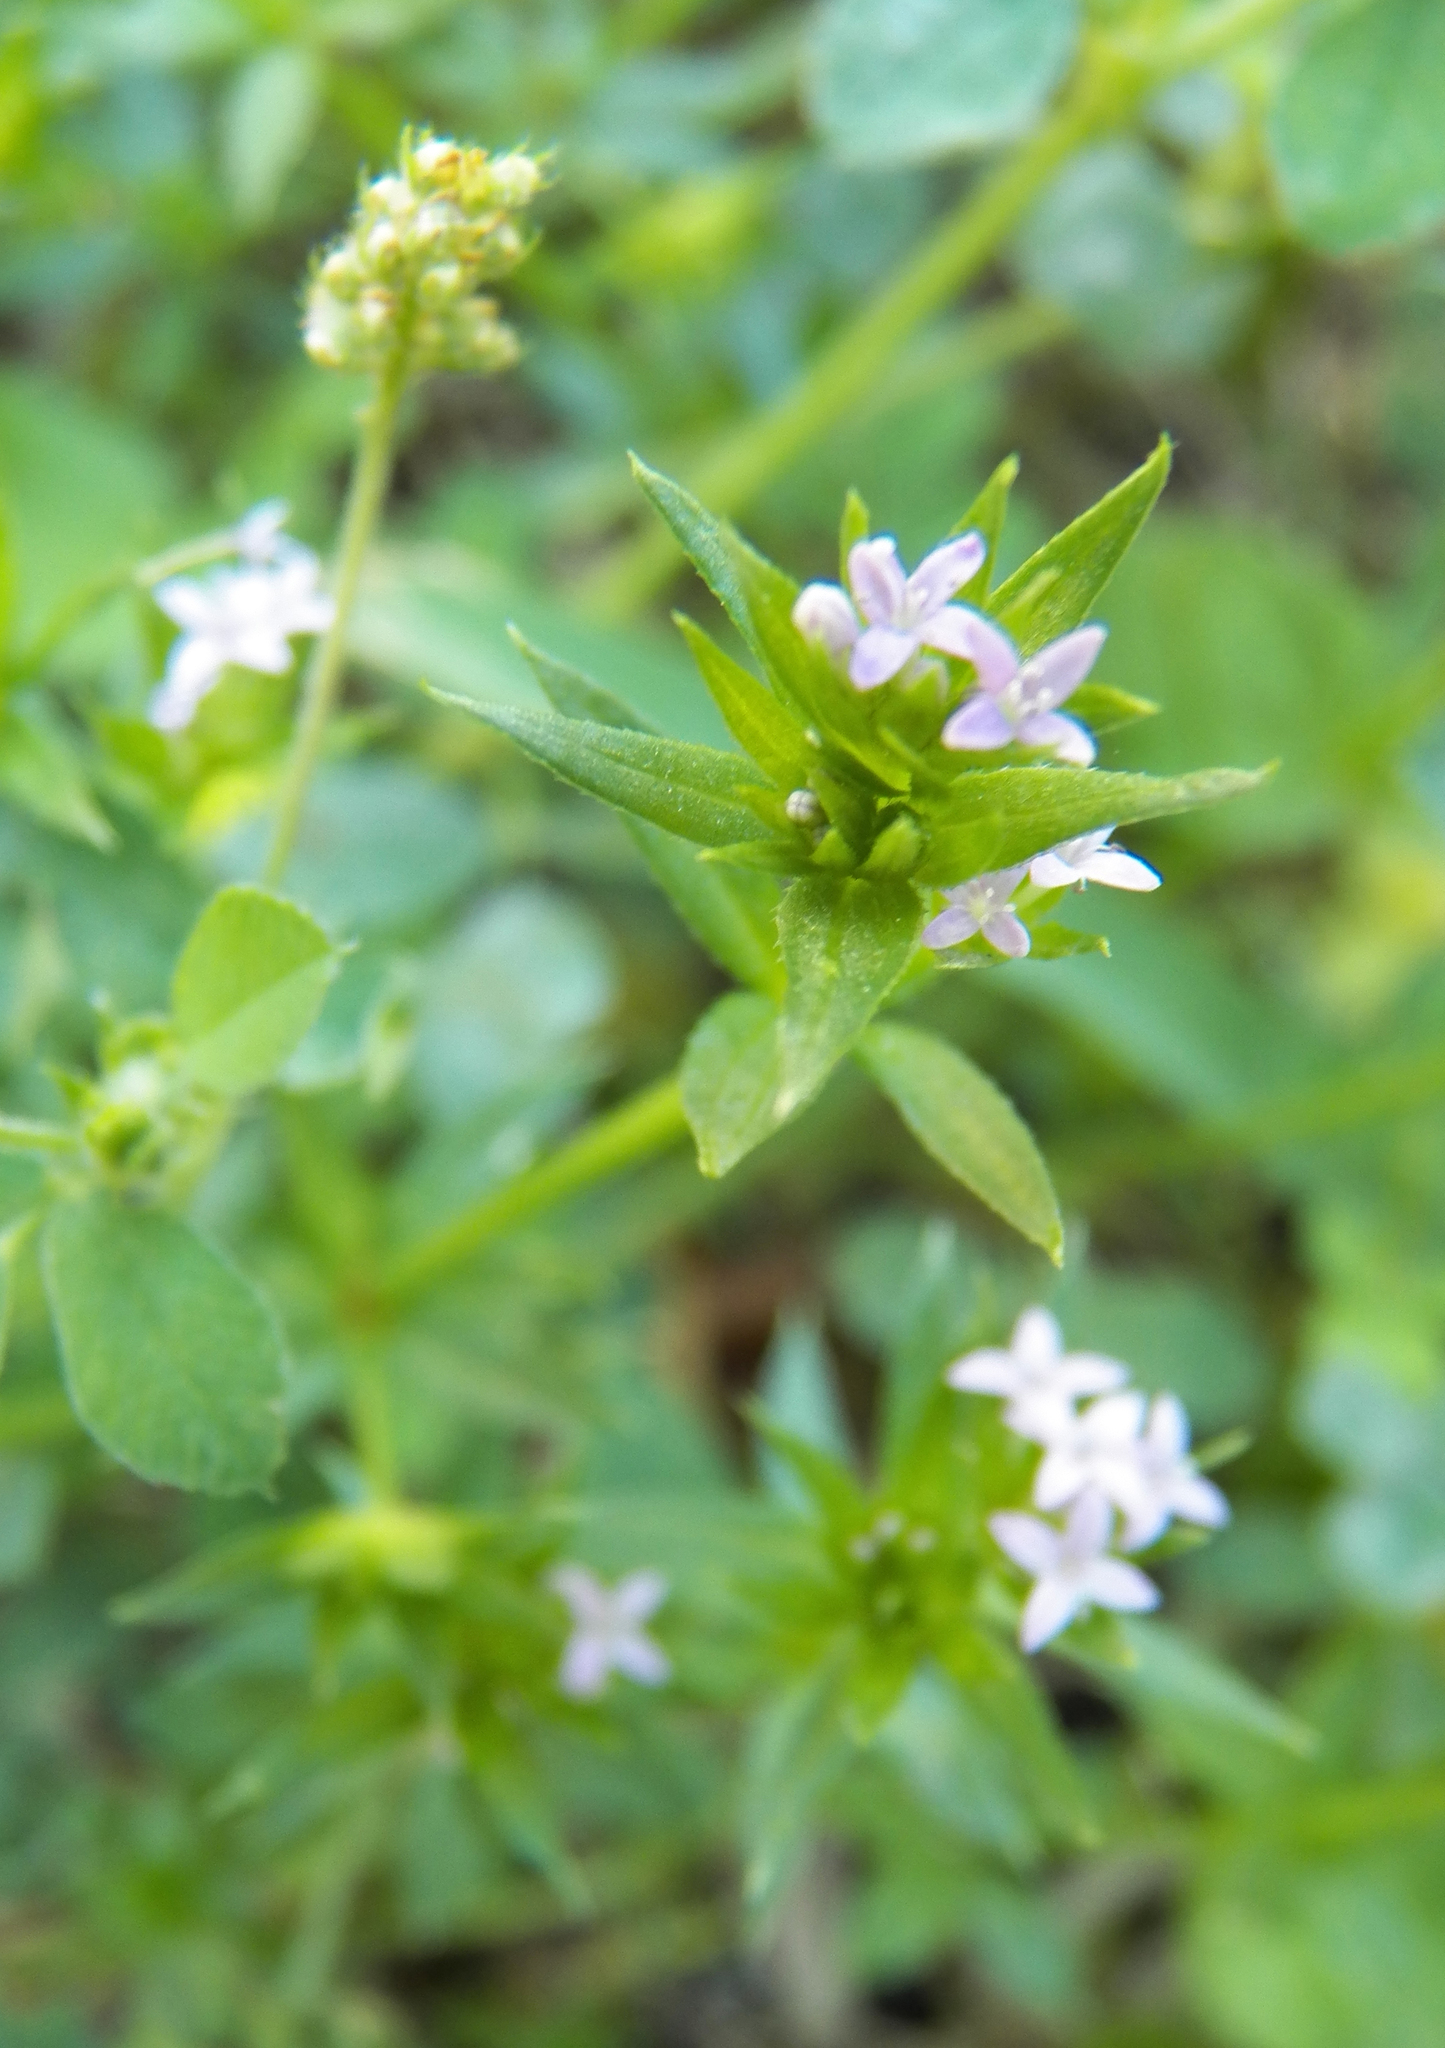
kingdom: Plantae
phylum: Tracheophyta
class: Magnoliopsida
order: Gentianales
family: Rubiaceae
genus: Sherardia
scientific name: Sherardia arvensis
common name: Field madder
